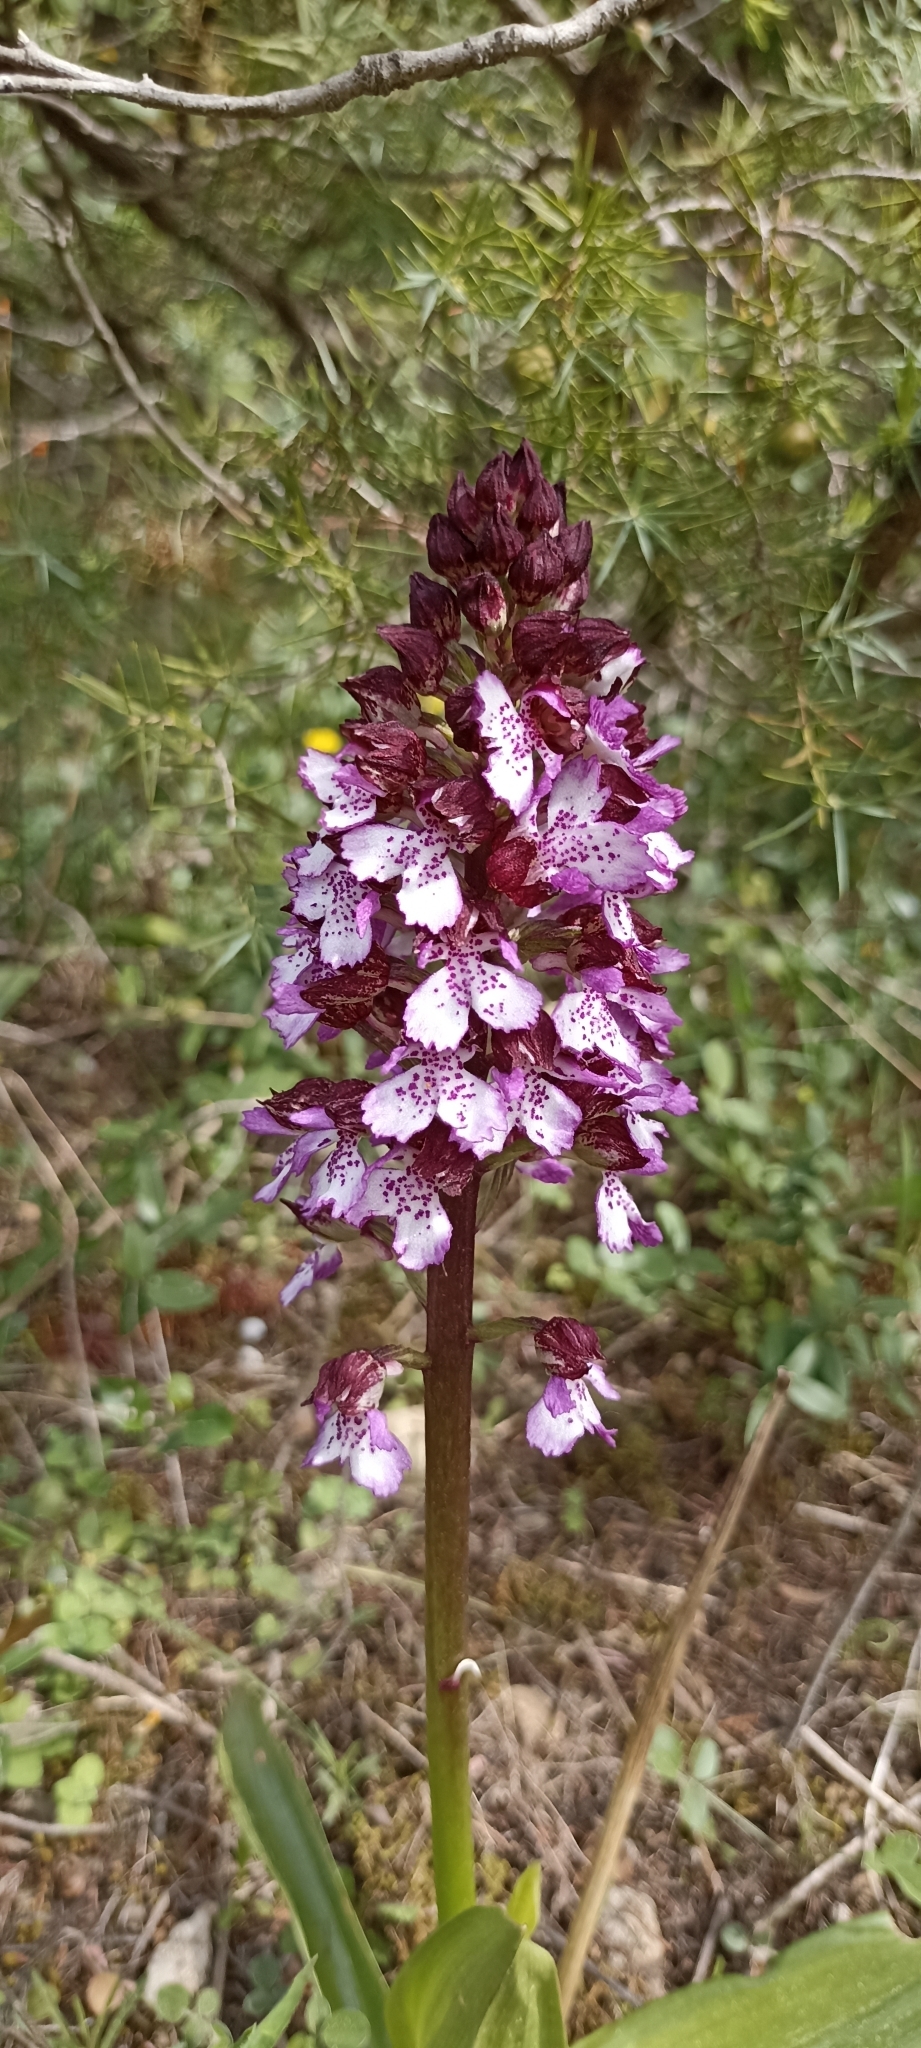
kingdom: Plantae
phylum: Tracheophyta
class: Liliopsida
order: Asparagales
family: Orchidaceae
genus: Orchis
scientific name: Orchis purpurea
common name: Lady orchid
